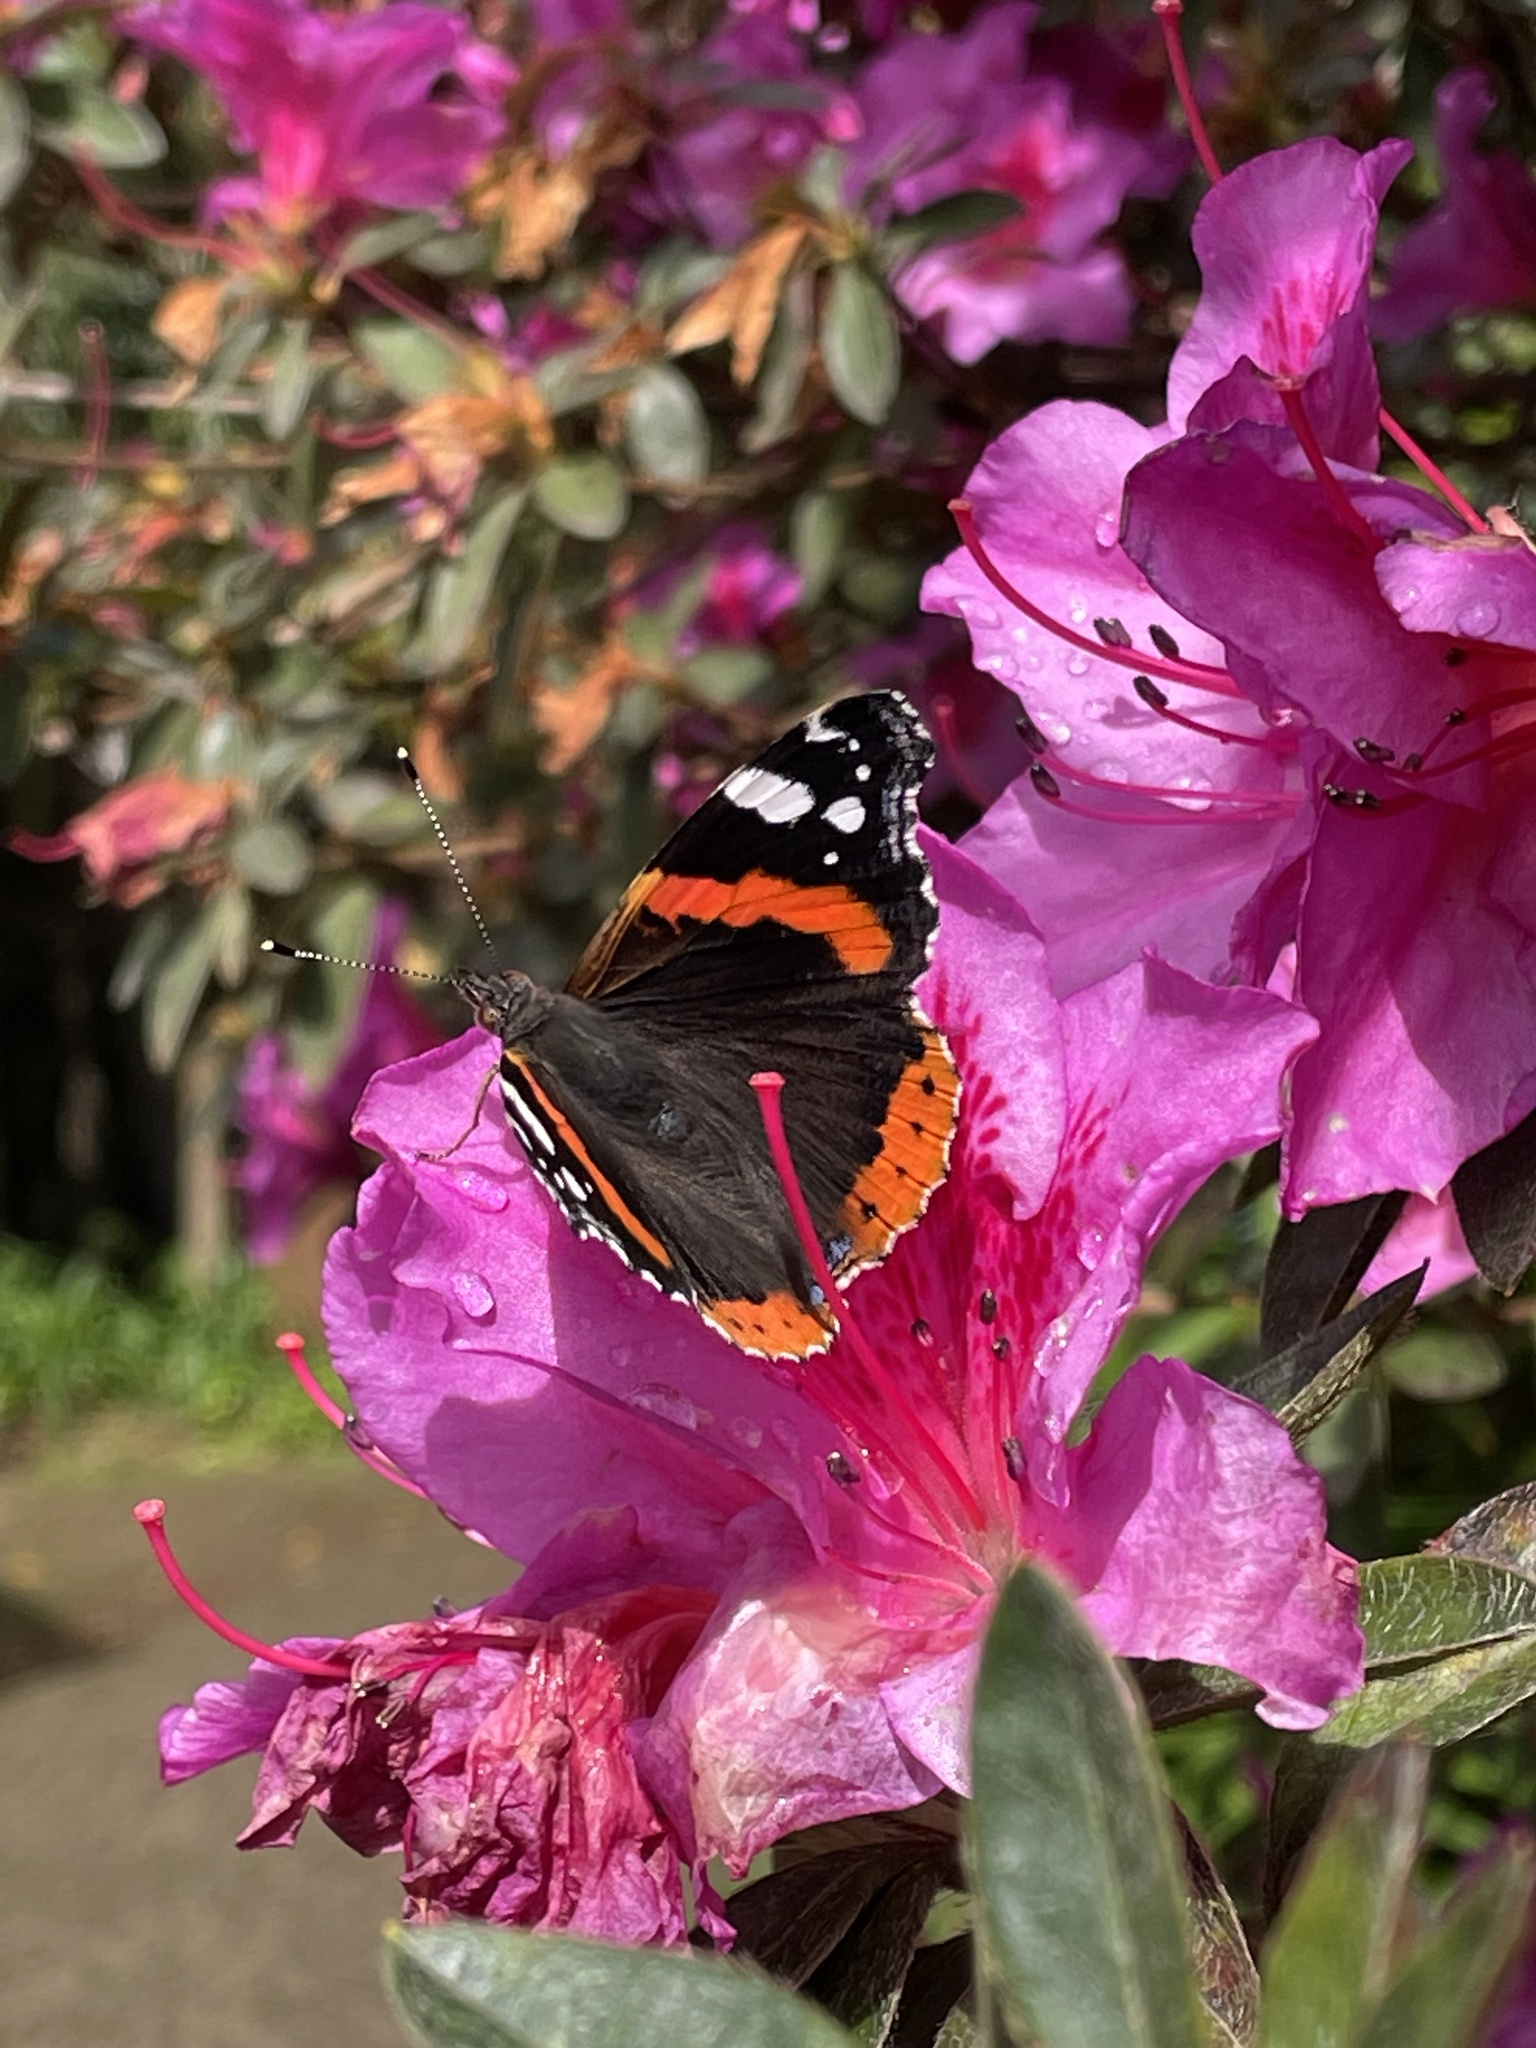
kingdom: Animalia
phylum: Arthropoda
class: Insecta
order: Lepidoptera
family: Nymphalidae
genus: Vanessa
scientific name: Vanessa atalanta
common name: Red admiral
